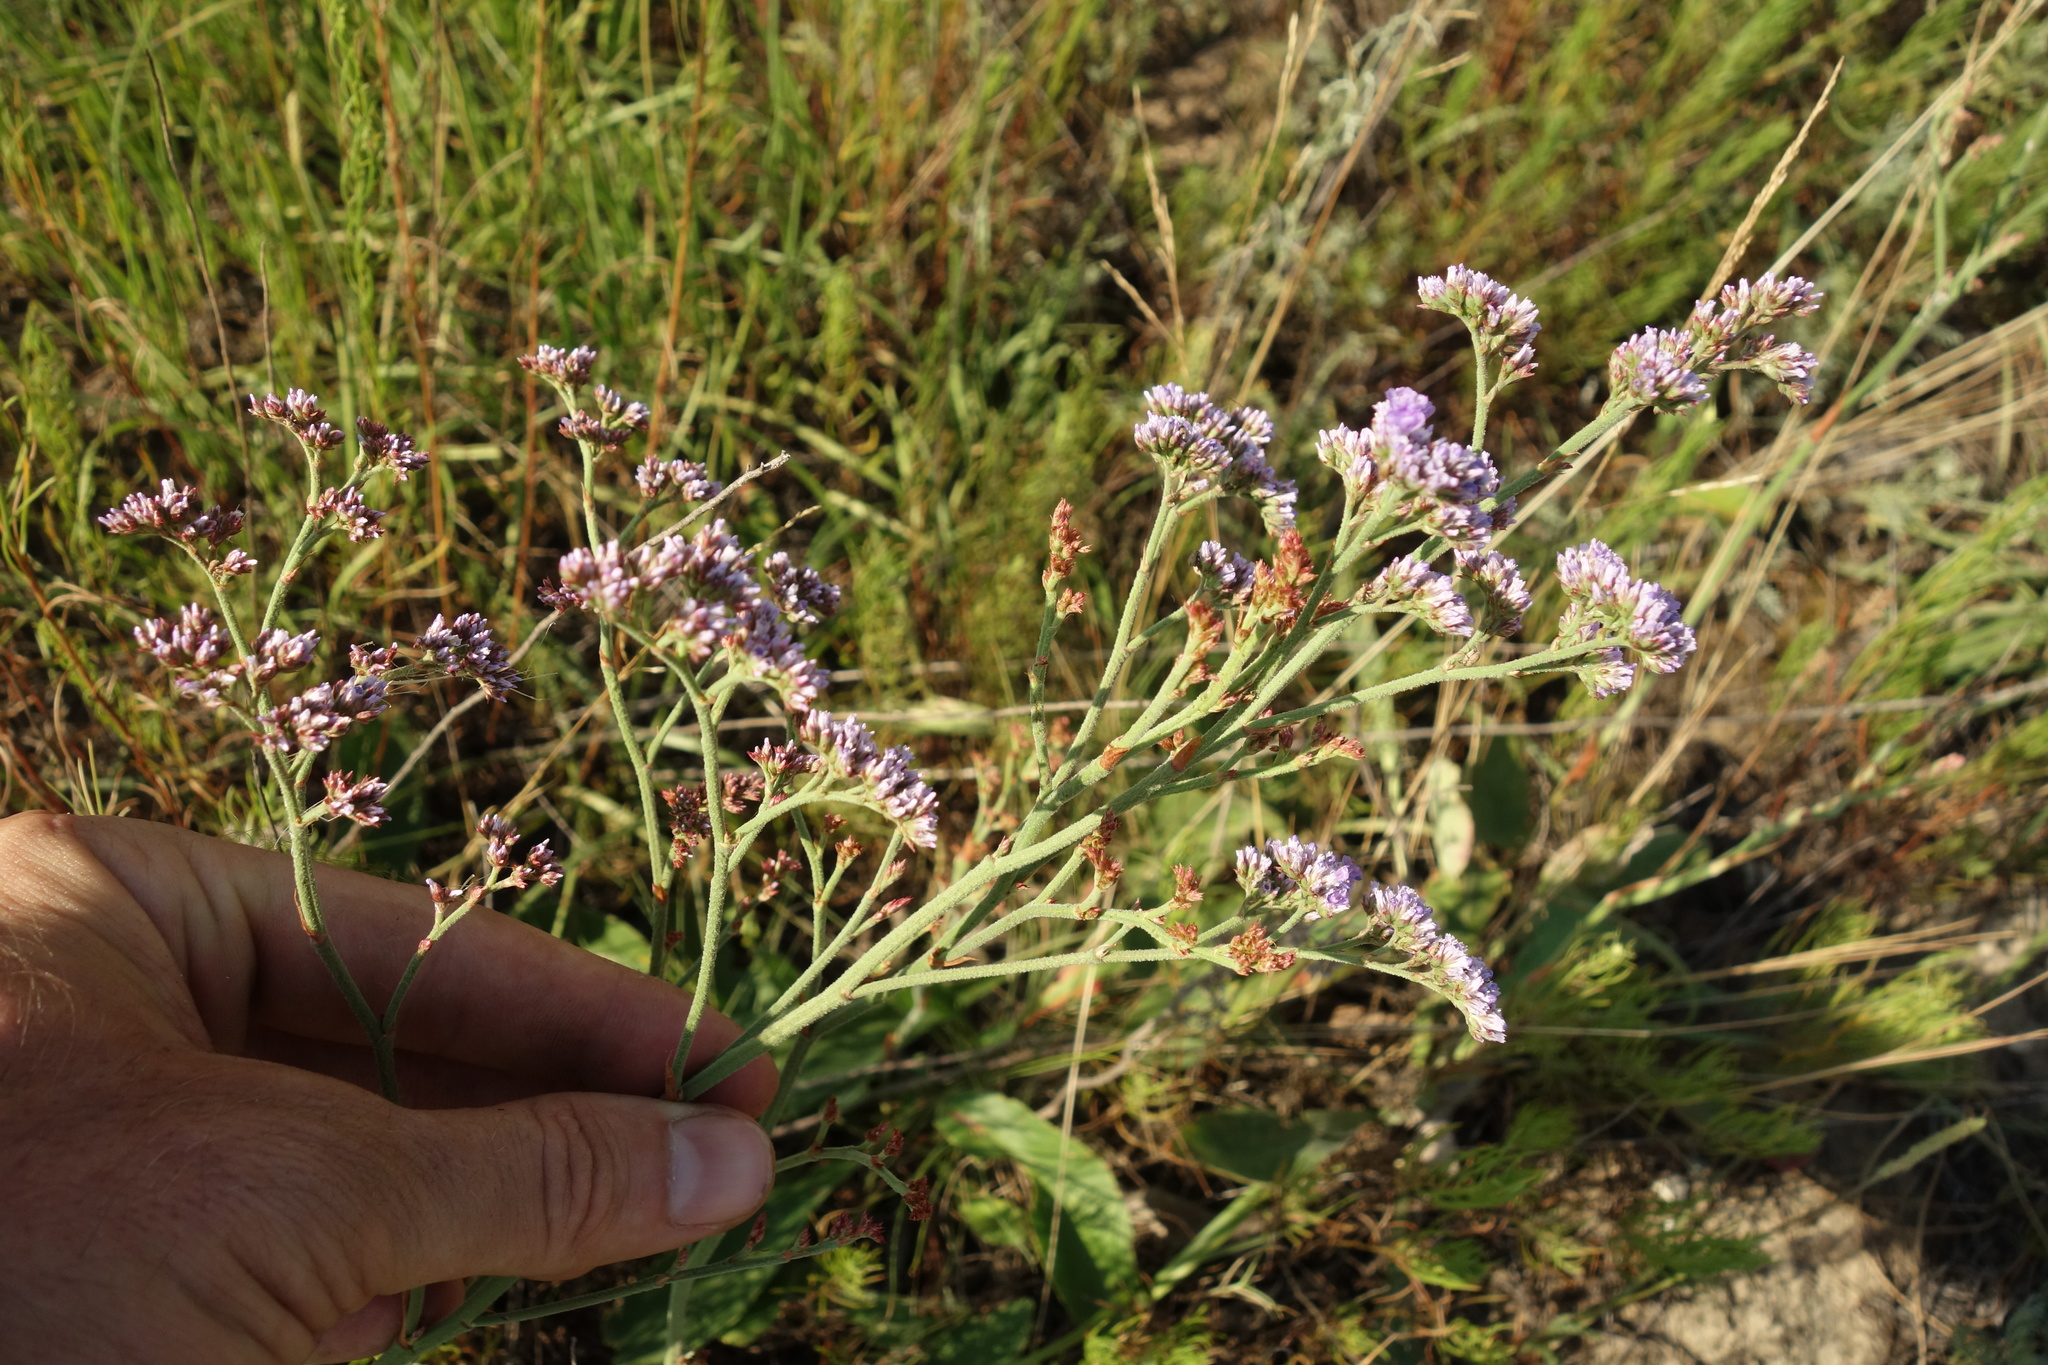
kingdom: Plantae
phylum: Tracheophyta
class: Magnoliopsida
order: Caryophyllales
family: Plumbaginaceae
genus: Limonium
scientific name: Limonium tomentellum
